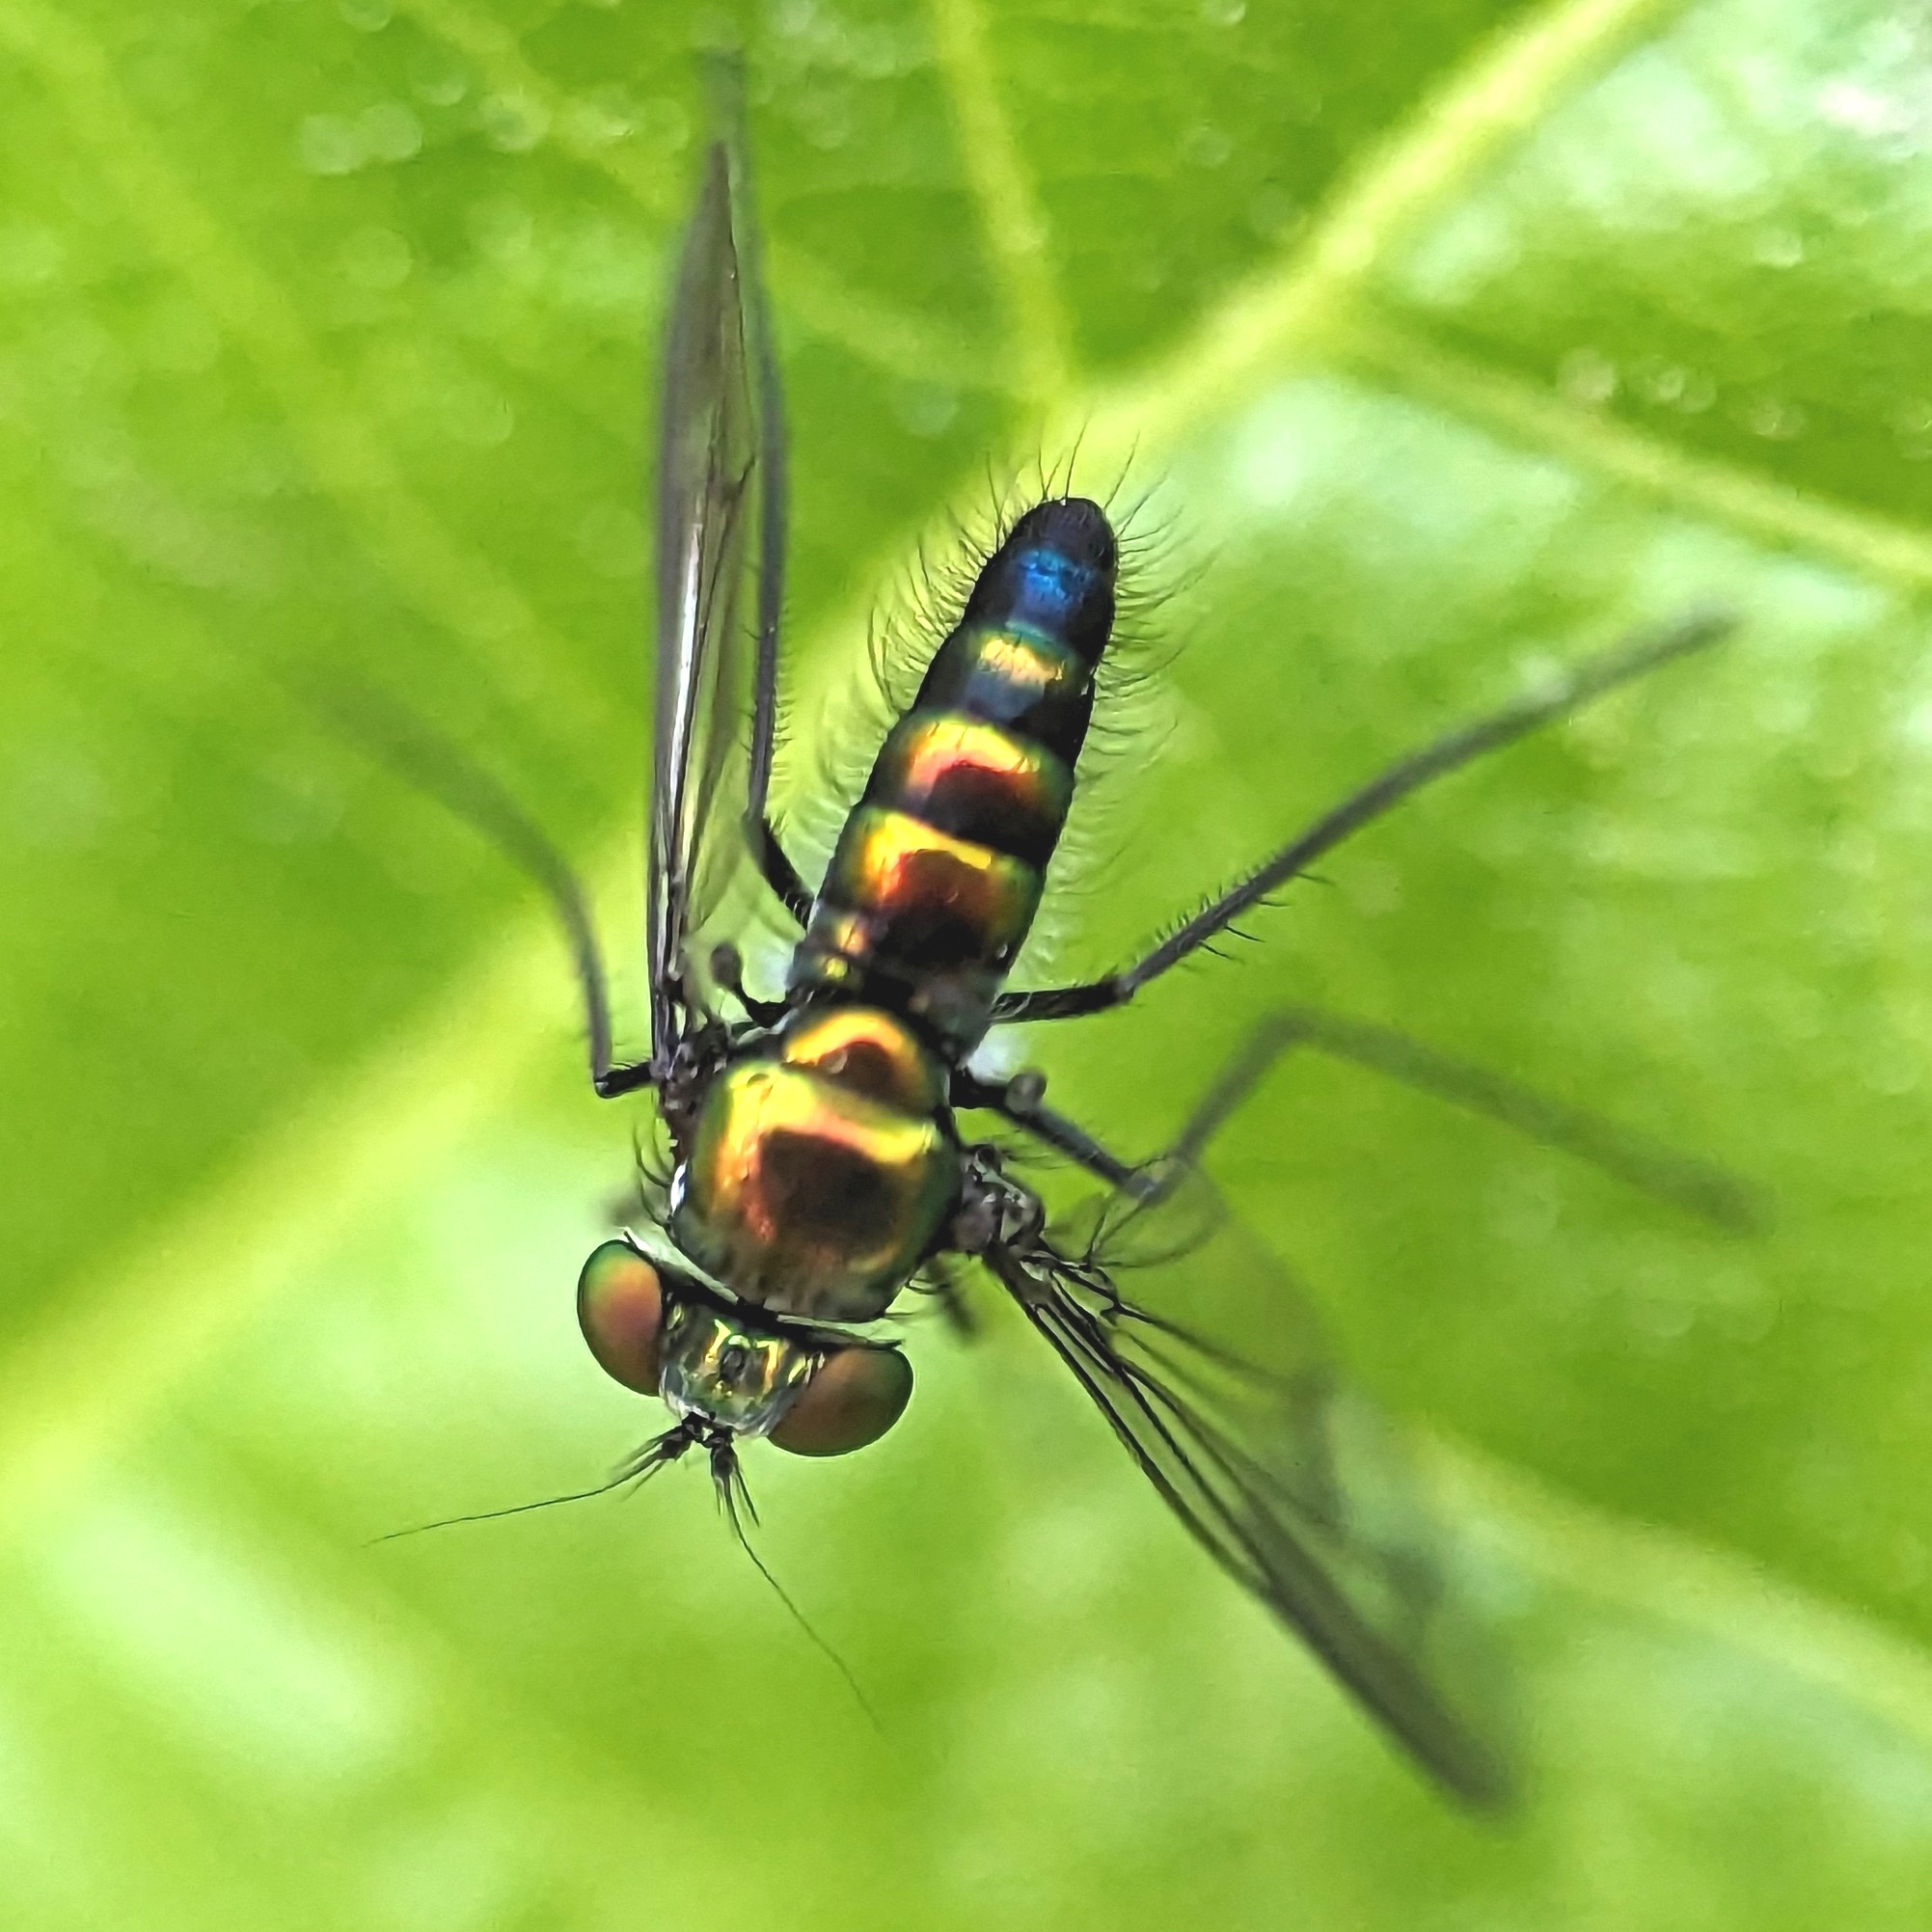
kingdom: Animalia
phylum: Arthropoda
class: Insecta
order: Diptera
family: Dolichopodidae
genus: Condylostylus
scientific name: Condylostylus patibulatus
